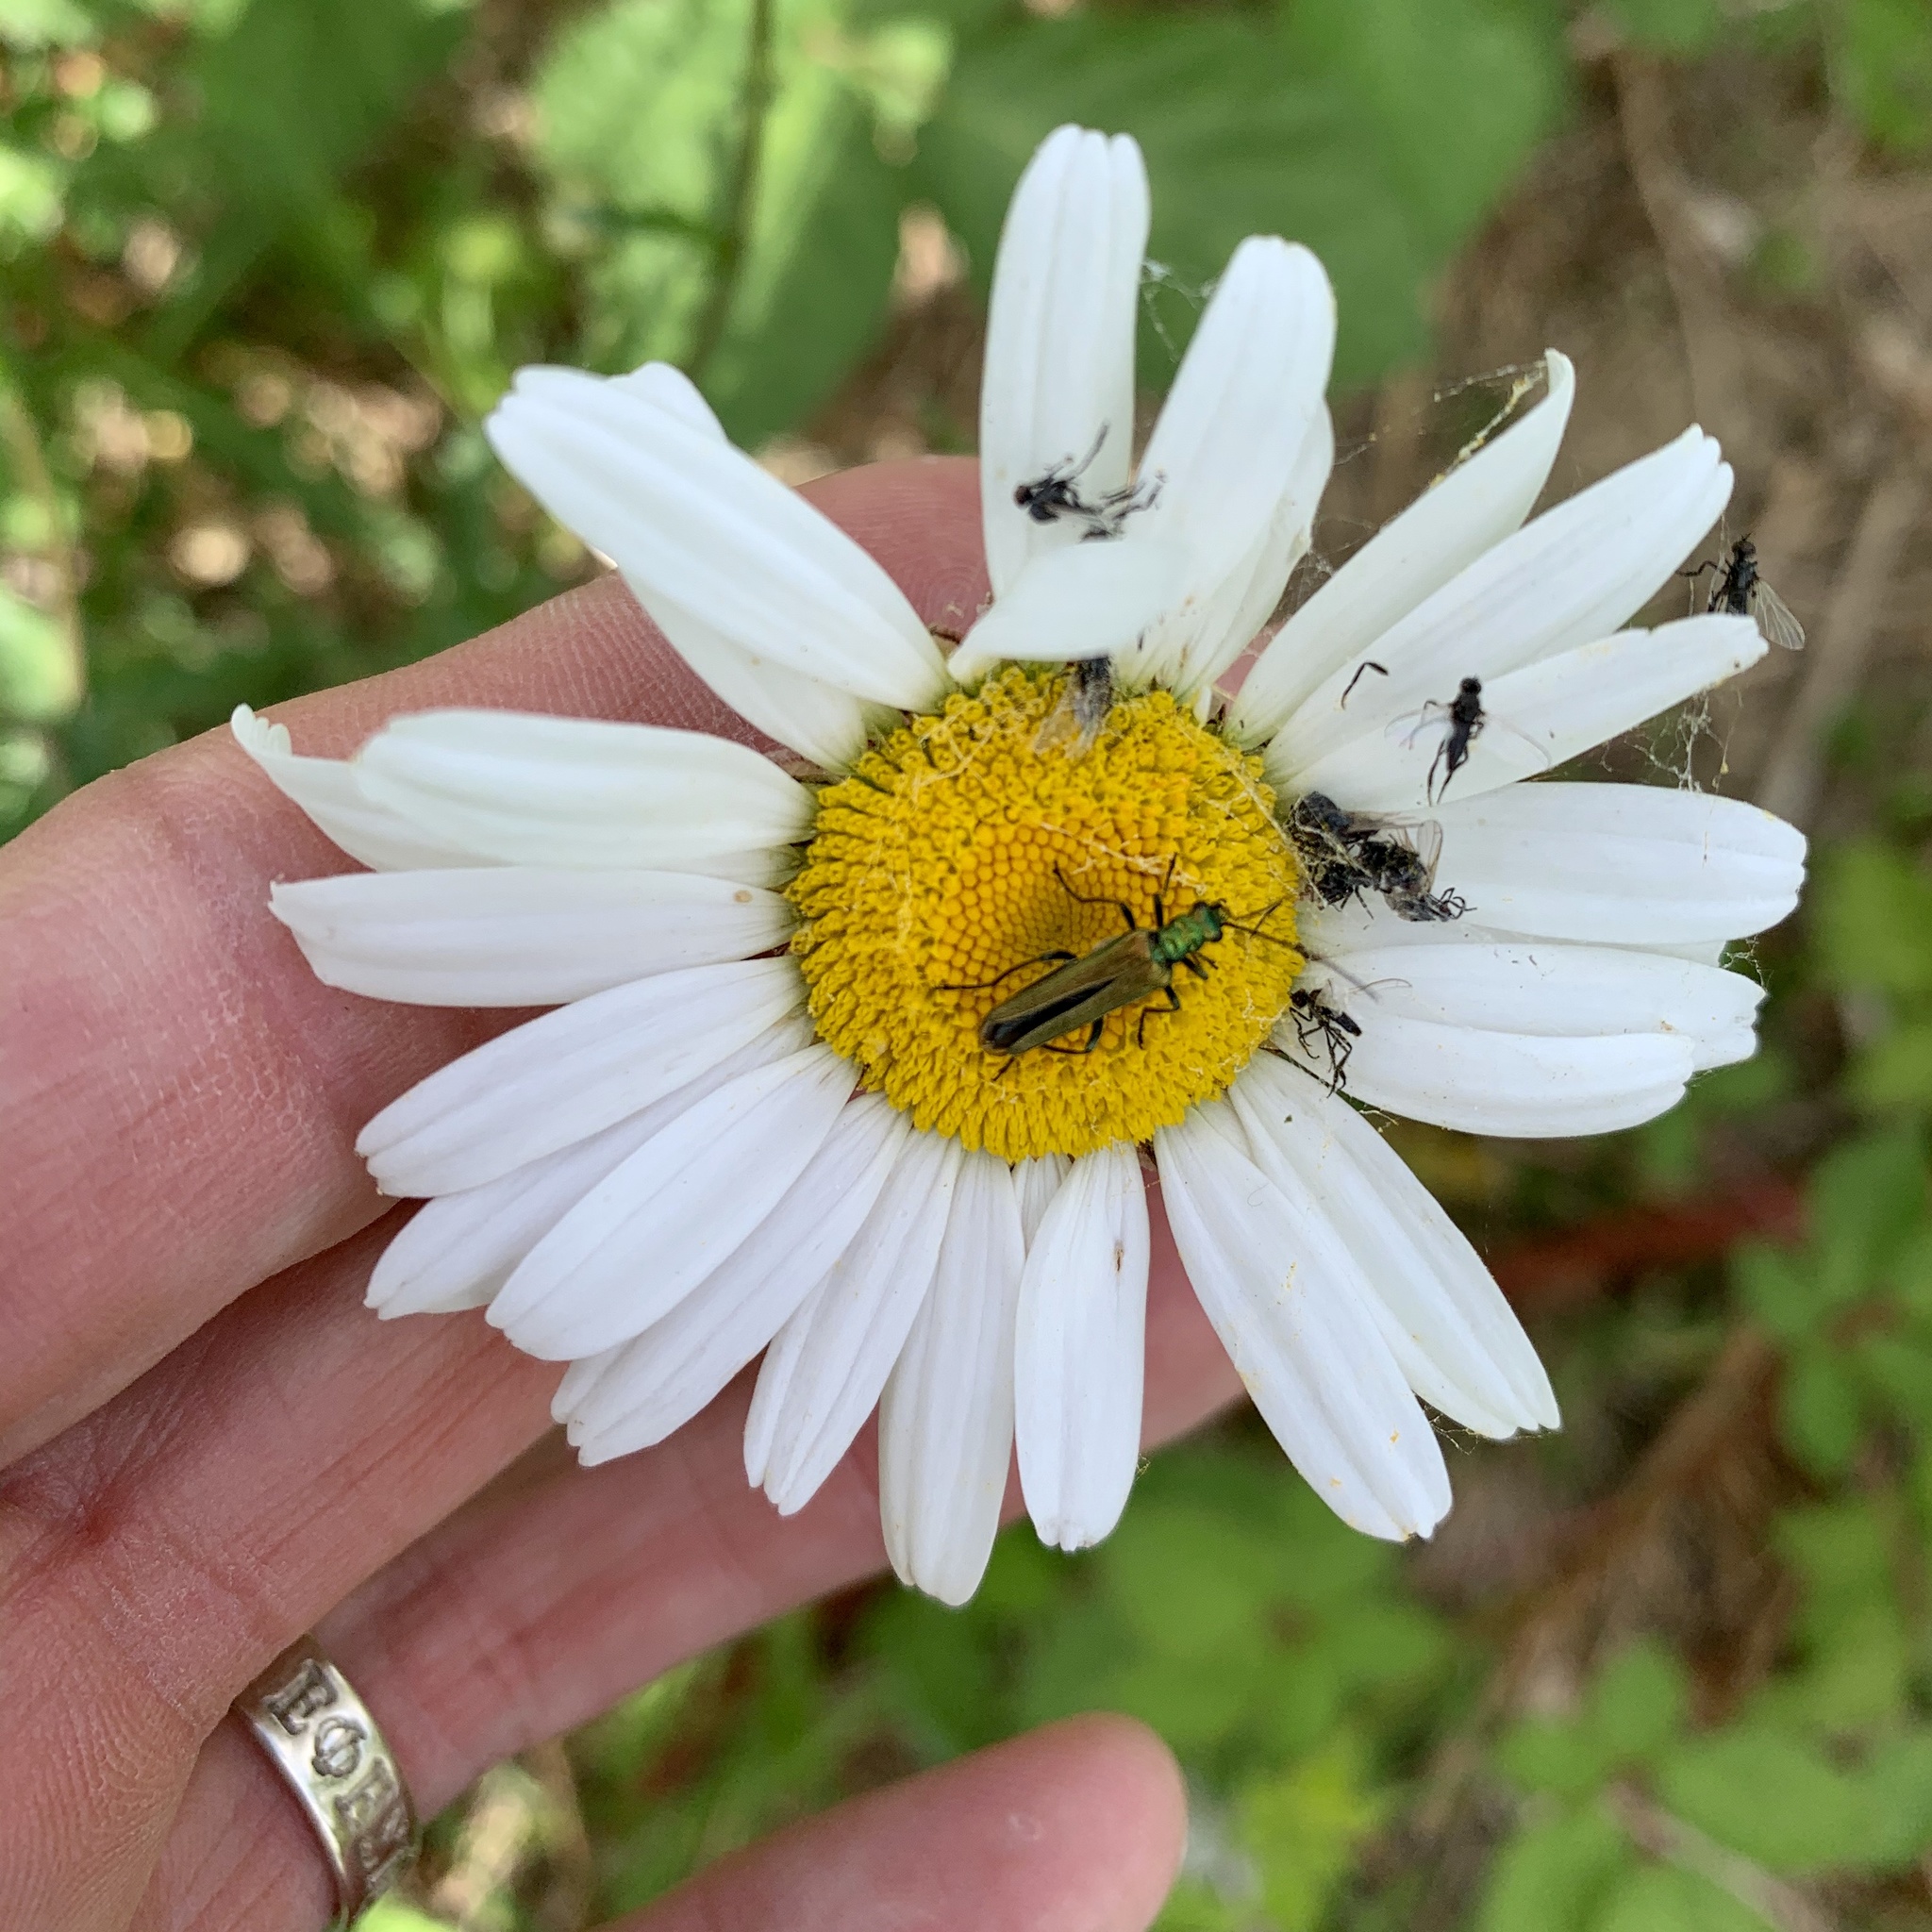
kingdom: Animalia
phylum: Arthropoda
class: Insecta
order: Coleoptera
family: Oedemeridae
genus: Oedemera
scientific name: Oedemera nobilis
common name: Swollen-thighed beetle
